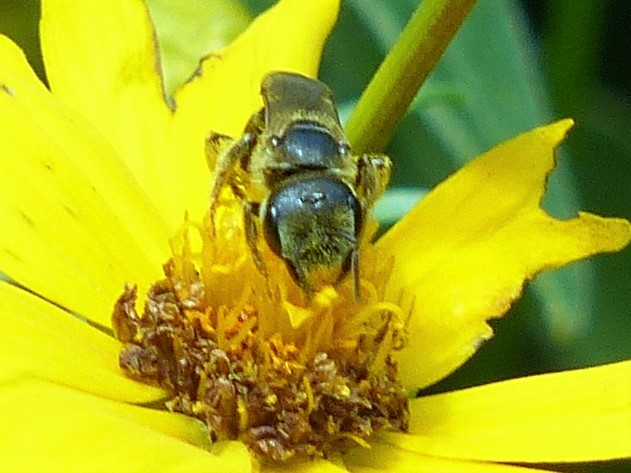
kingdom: Animalia
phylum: Arthropoda
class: Insecta
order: Hymenoptera
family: Halictidae
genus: Halictus
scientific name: Halictus ligatus
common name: Ligated furrow bee
